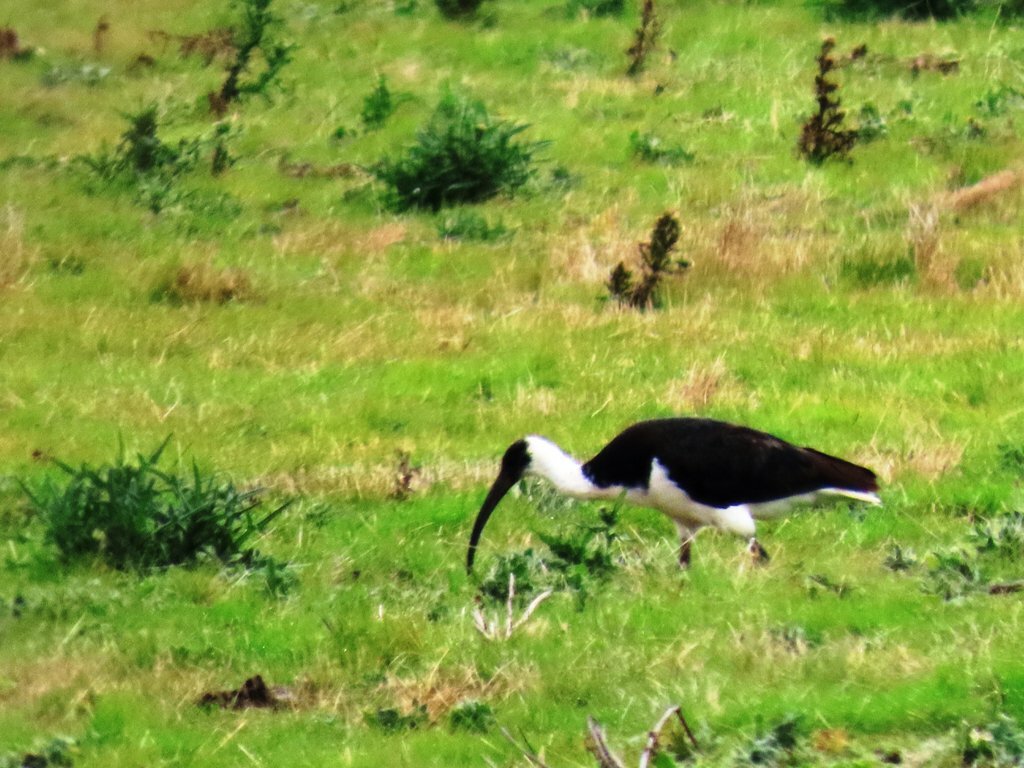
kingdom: Animalia
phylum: Chordata
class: Aves
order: Pelecaniformes
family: Threskiornithidae
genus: Threskiornis
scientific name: Threskiornis spinicollis
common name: Straw-necked ibis
